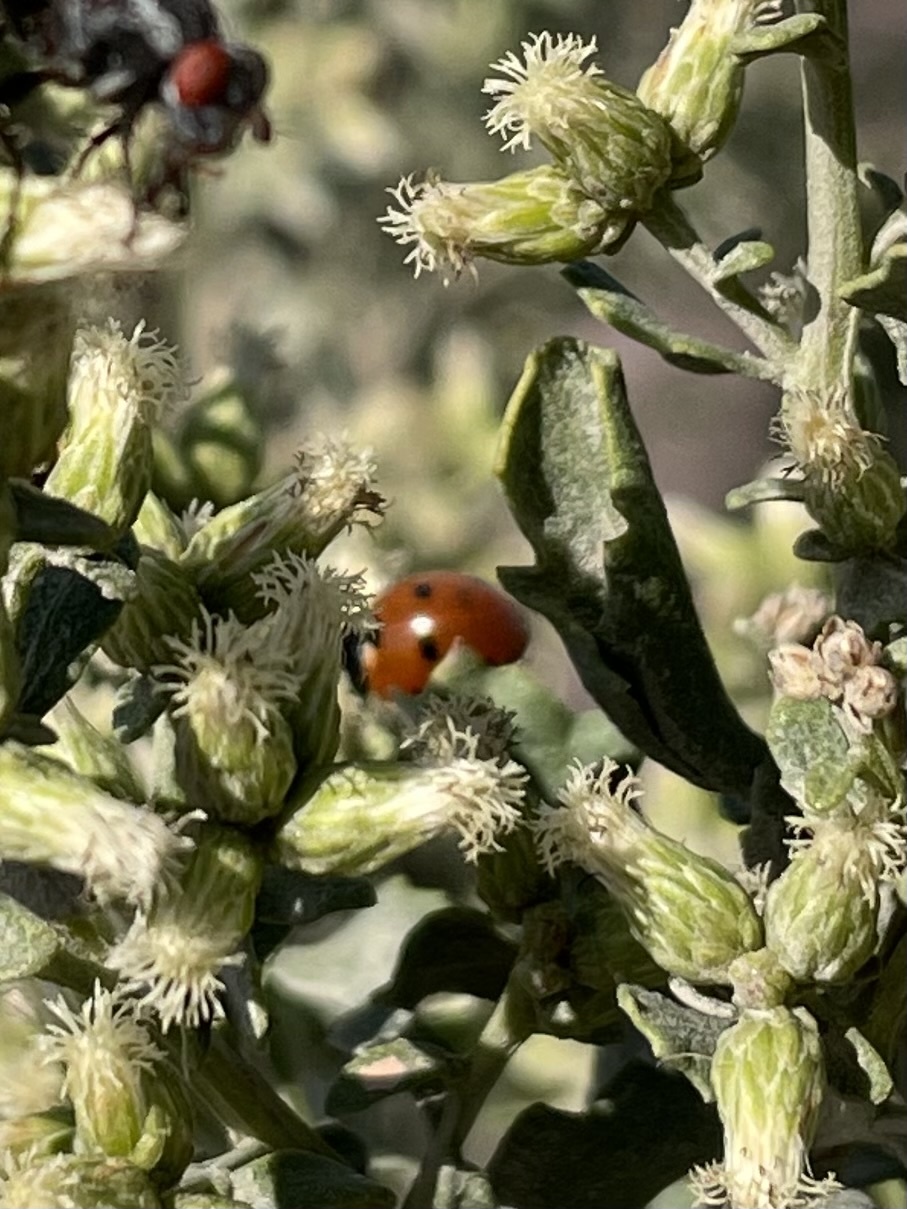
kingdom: Animalia
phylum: Arthropoda
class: Insecta
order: Coleoptera
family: Coccinellidae
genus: Coccinella
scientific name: Coccinella septempunctata
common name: Sevenspotted lady beetle
